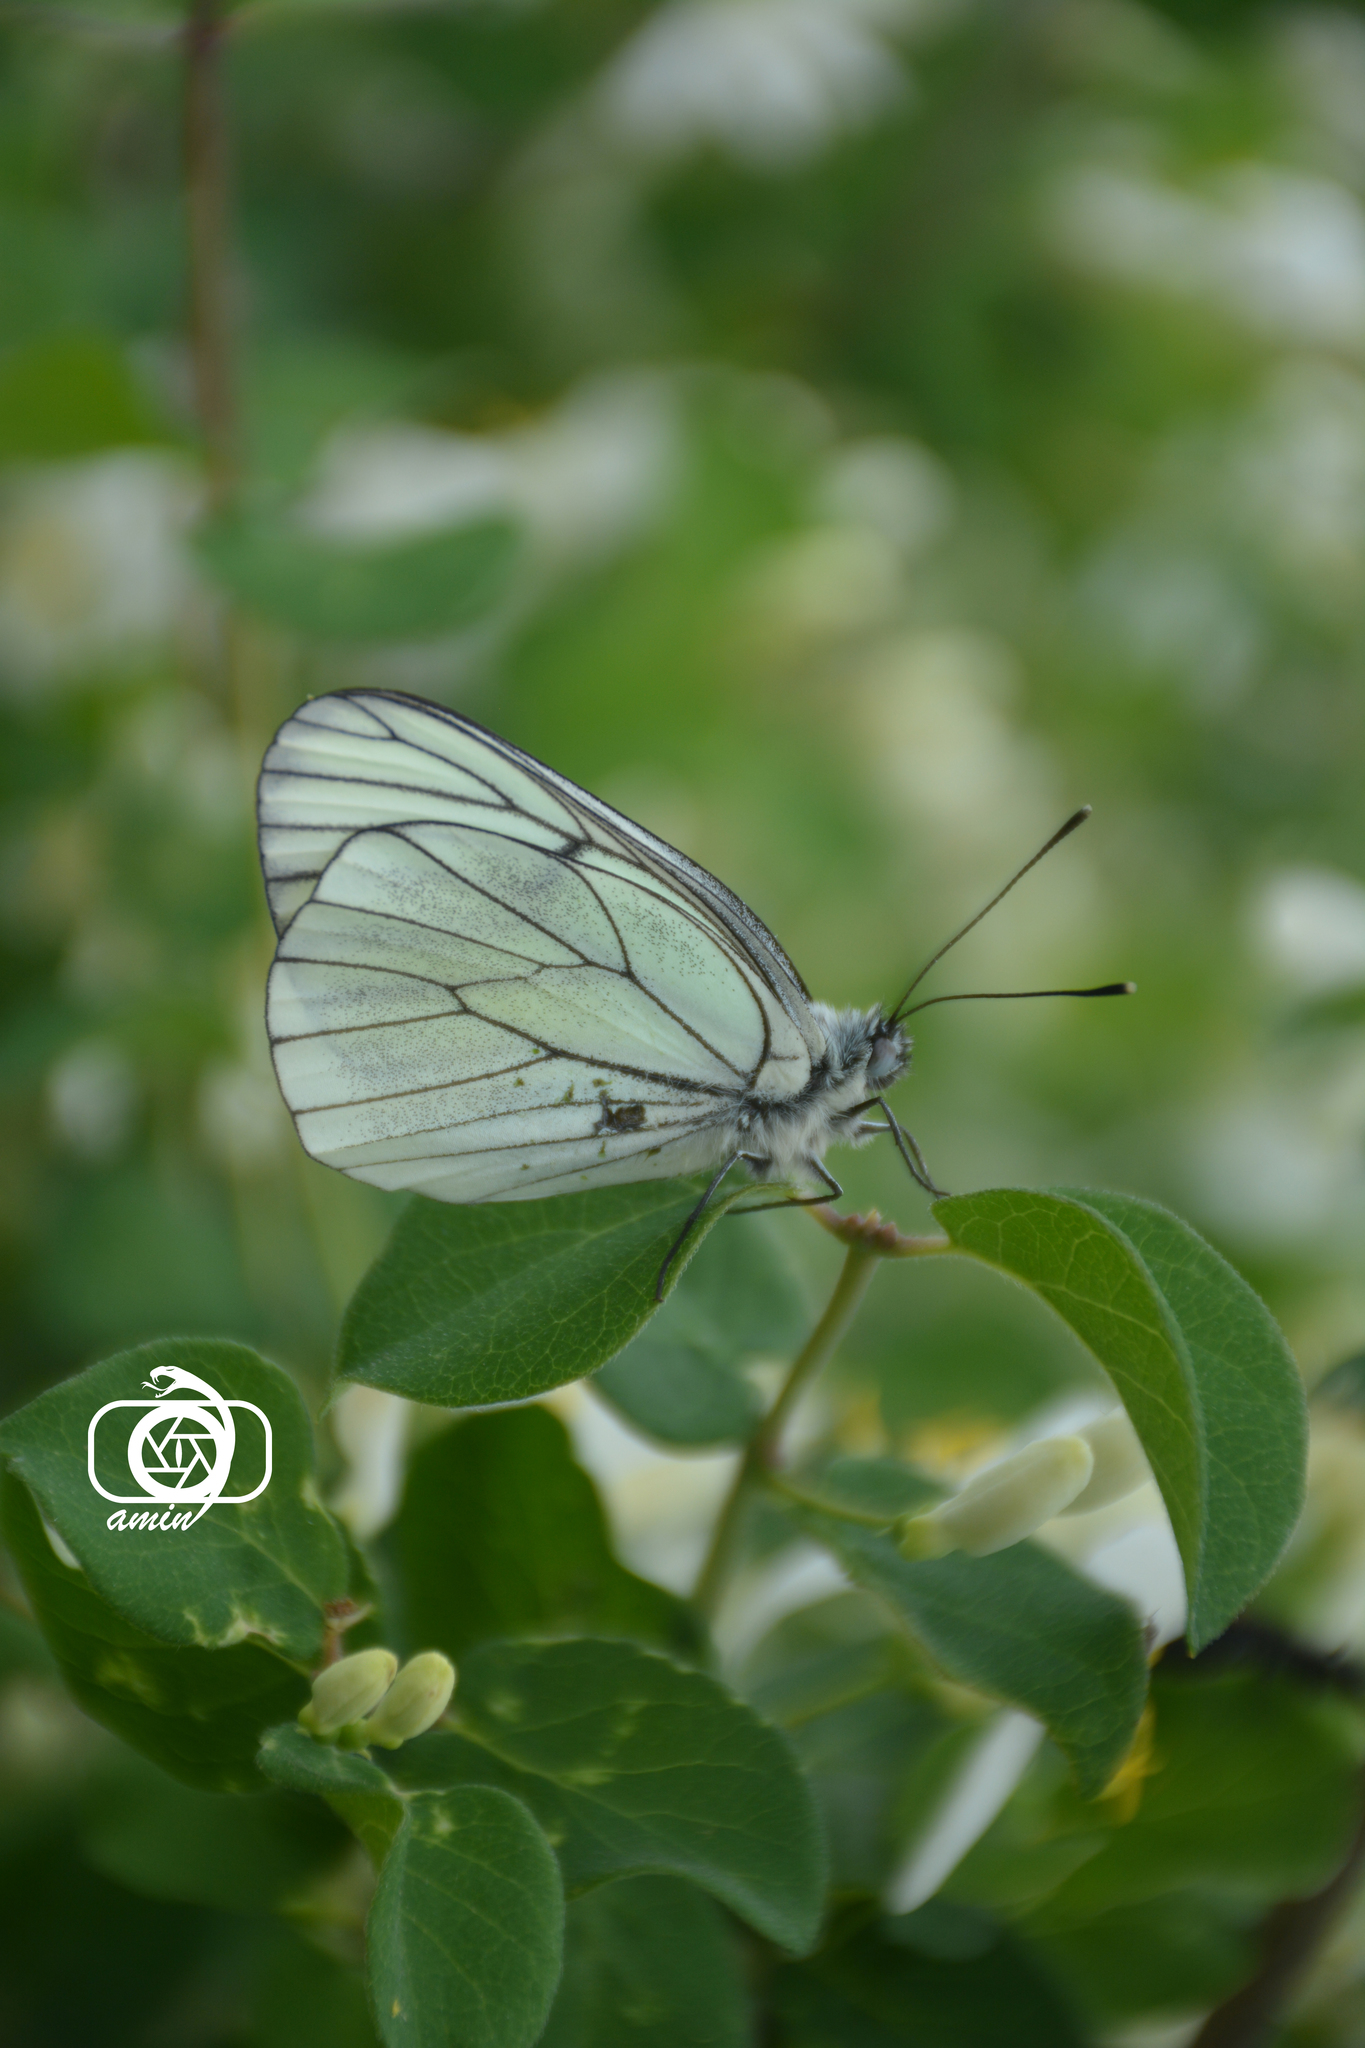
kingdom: Animalia
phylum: Arthropoda
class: Insecta
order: Lepidoptera
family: Pieridae
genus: Aporia
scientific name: Aporia crataegi
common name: Black-veined white
